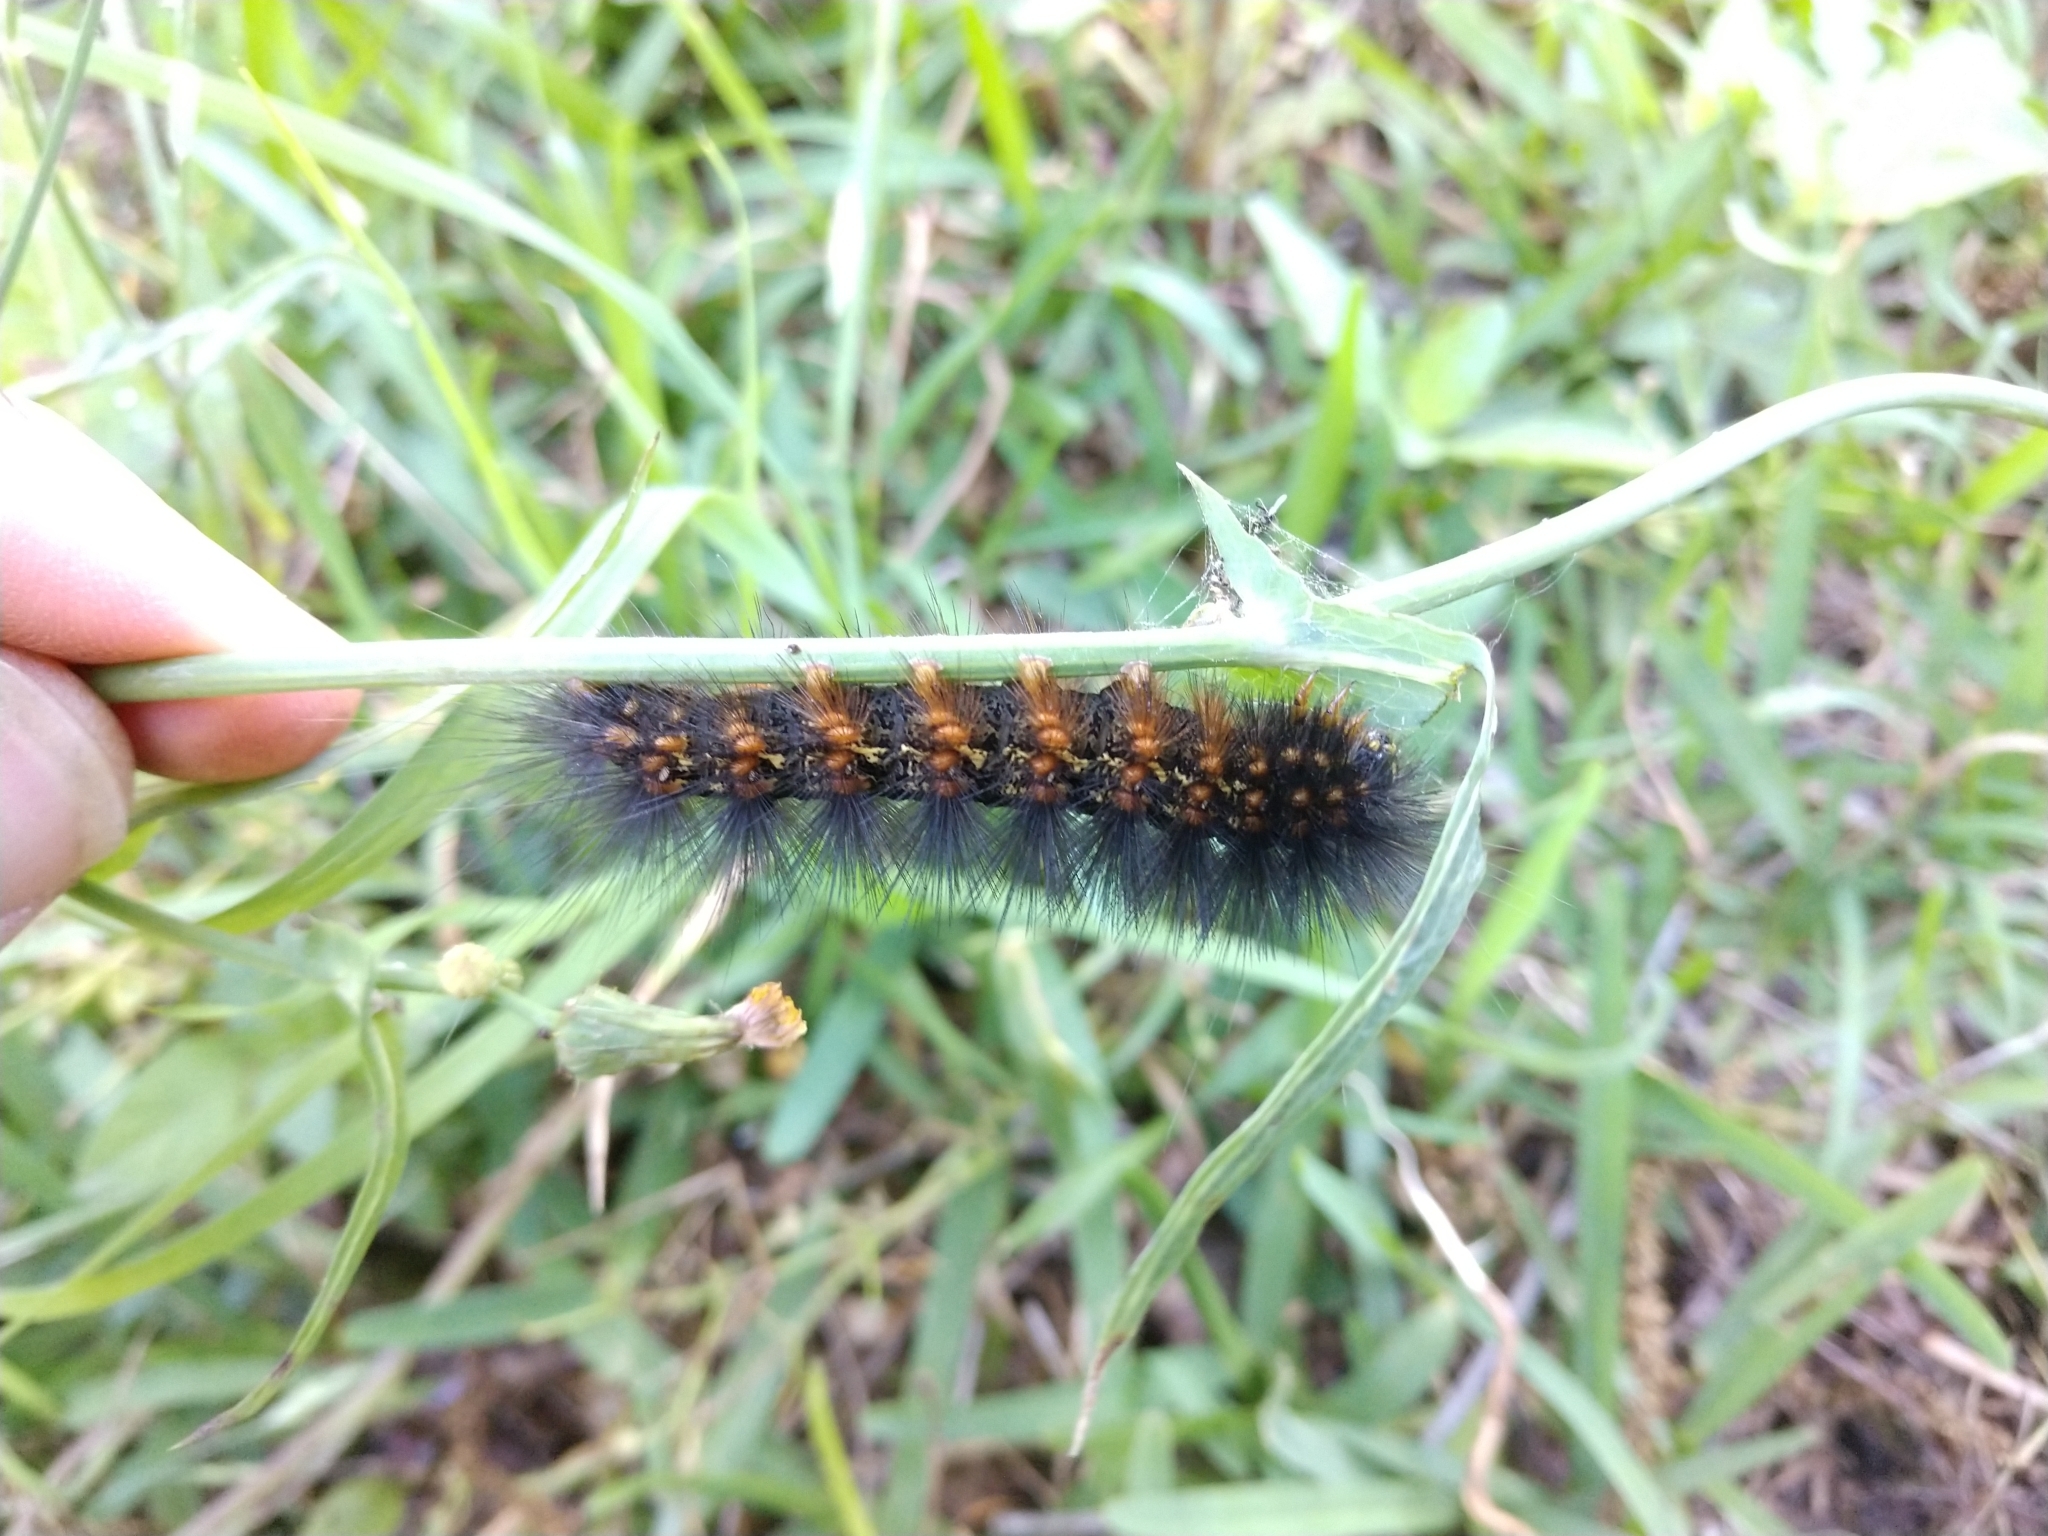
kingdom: Animalia
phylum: Arthropoda
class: Insecta
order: Lepidoptera
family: Erebidae
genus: Estigmene
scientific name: Estigmene acrea
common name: Salt marsh moth
